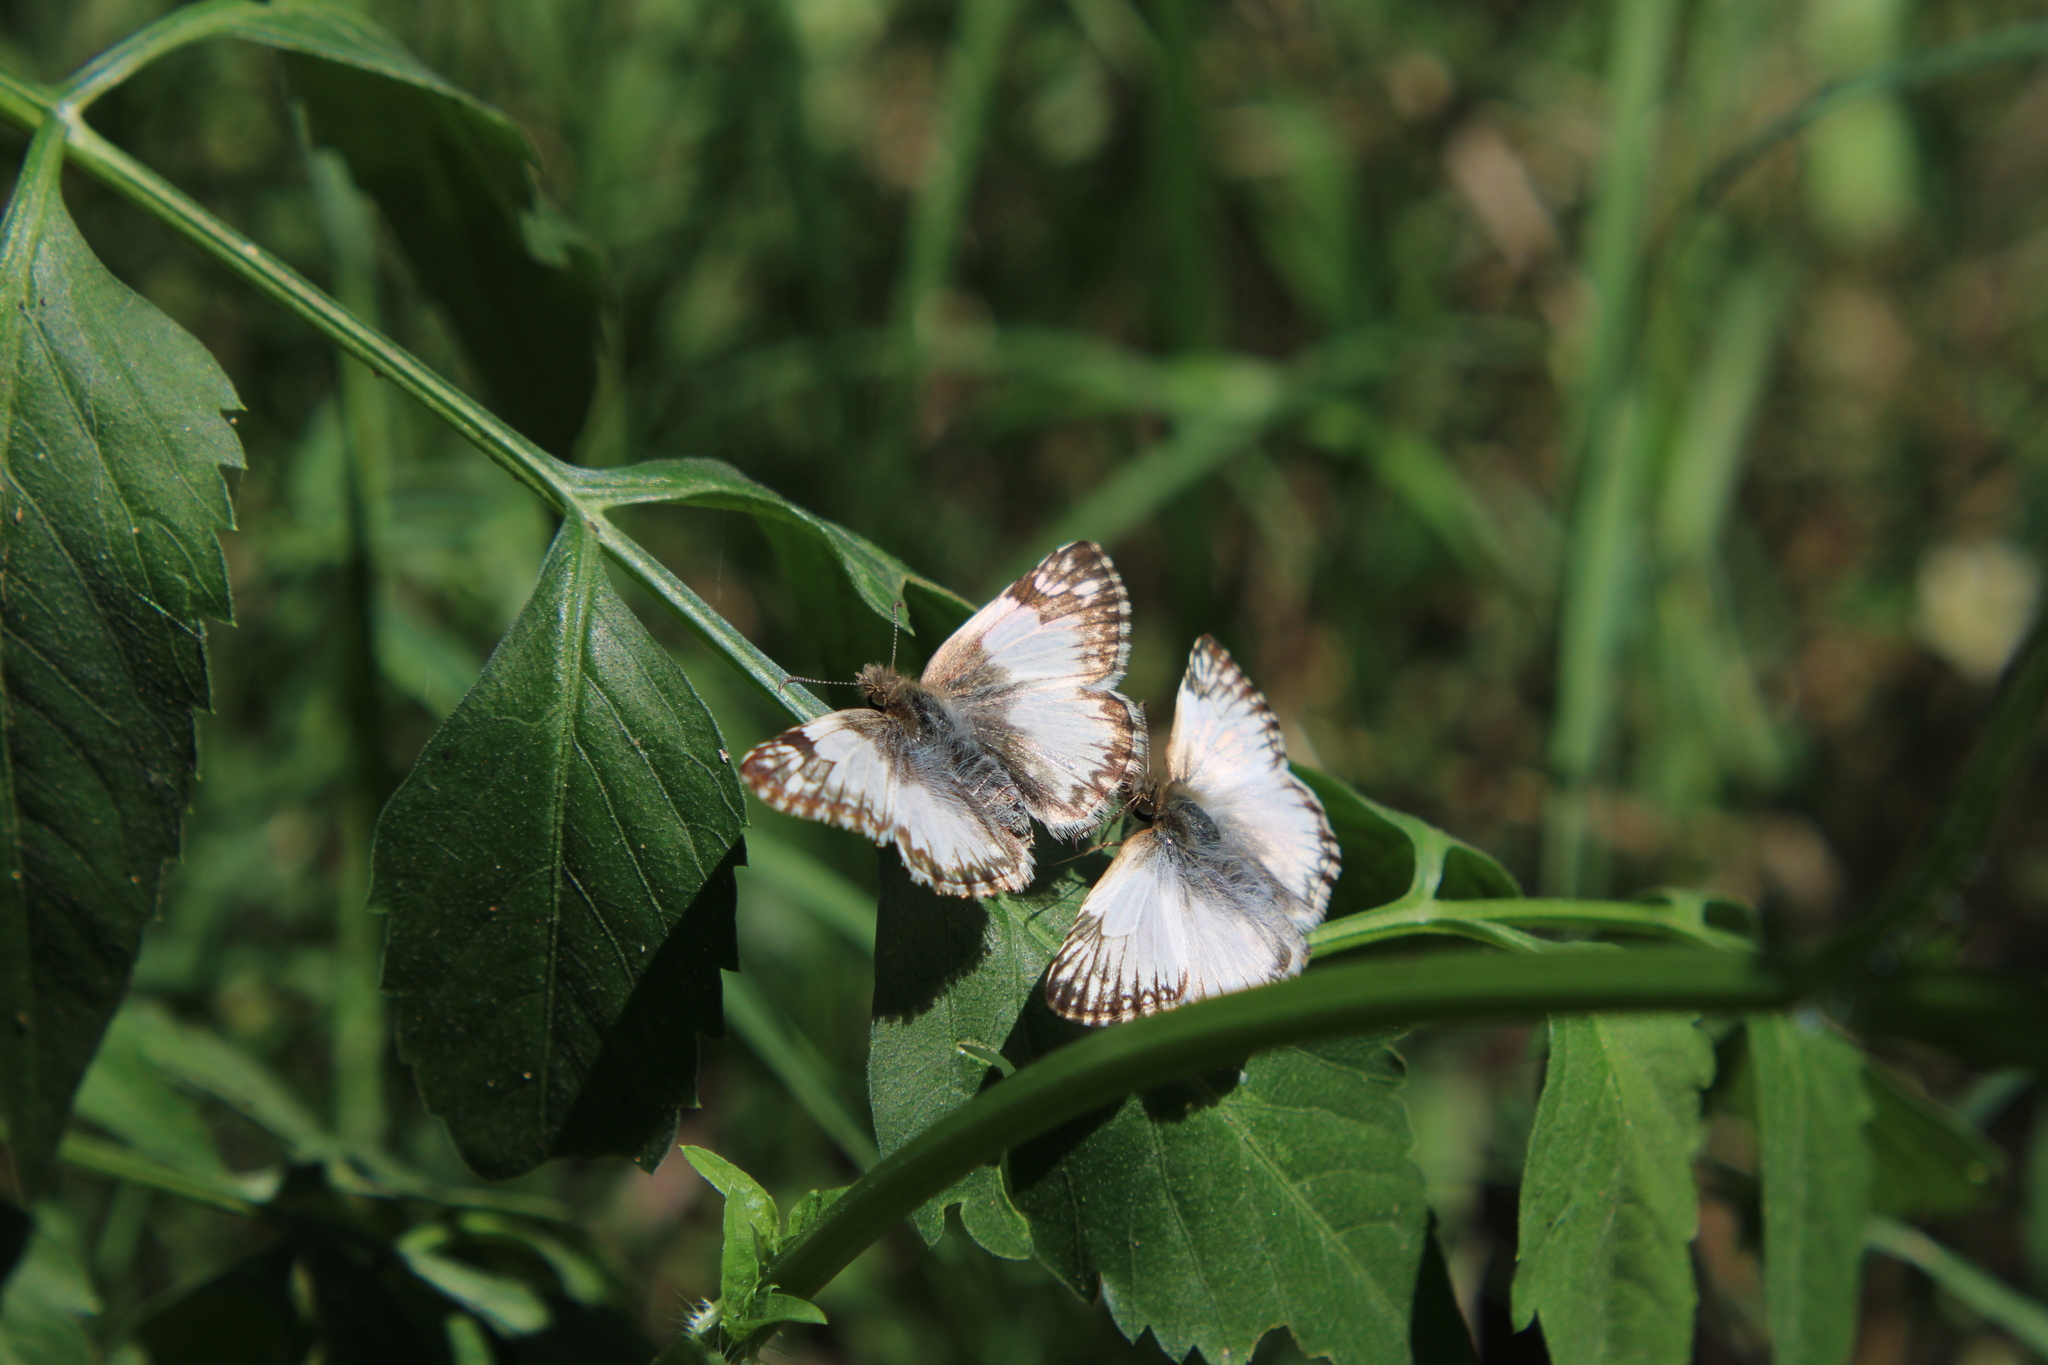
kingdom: Animalia
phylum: Arthropoda
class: Insecta
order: Lepidoptera
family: Hesperiidae
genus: Heliopetes
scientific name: Heliopetes omrina
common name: Stained white-skipper
